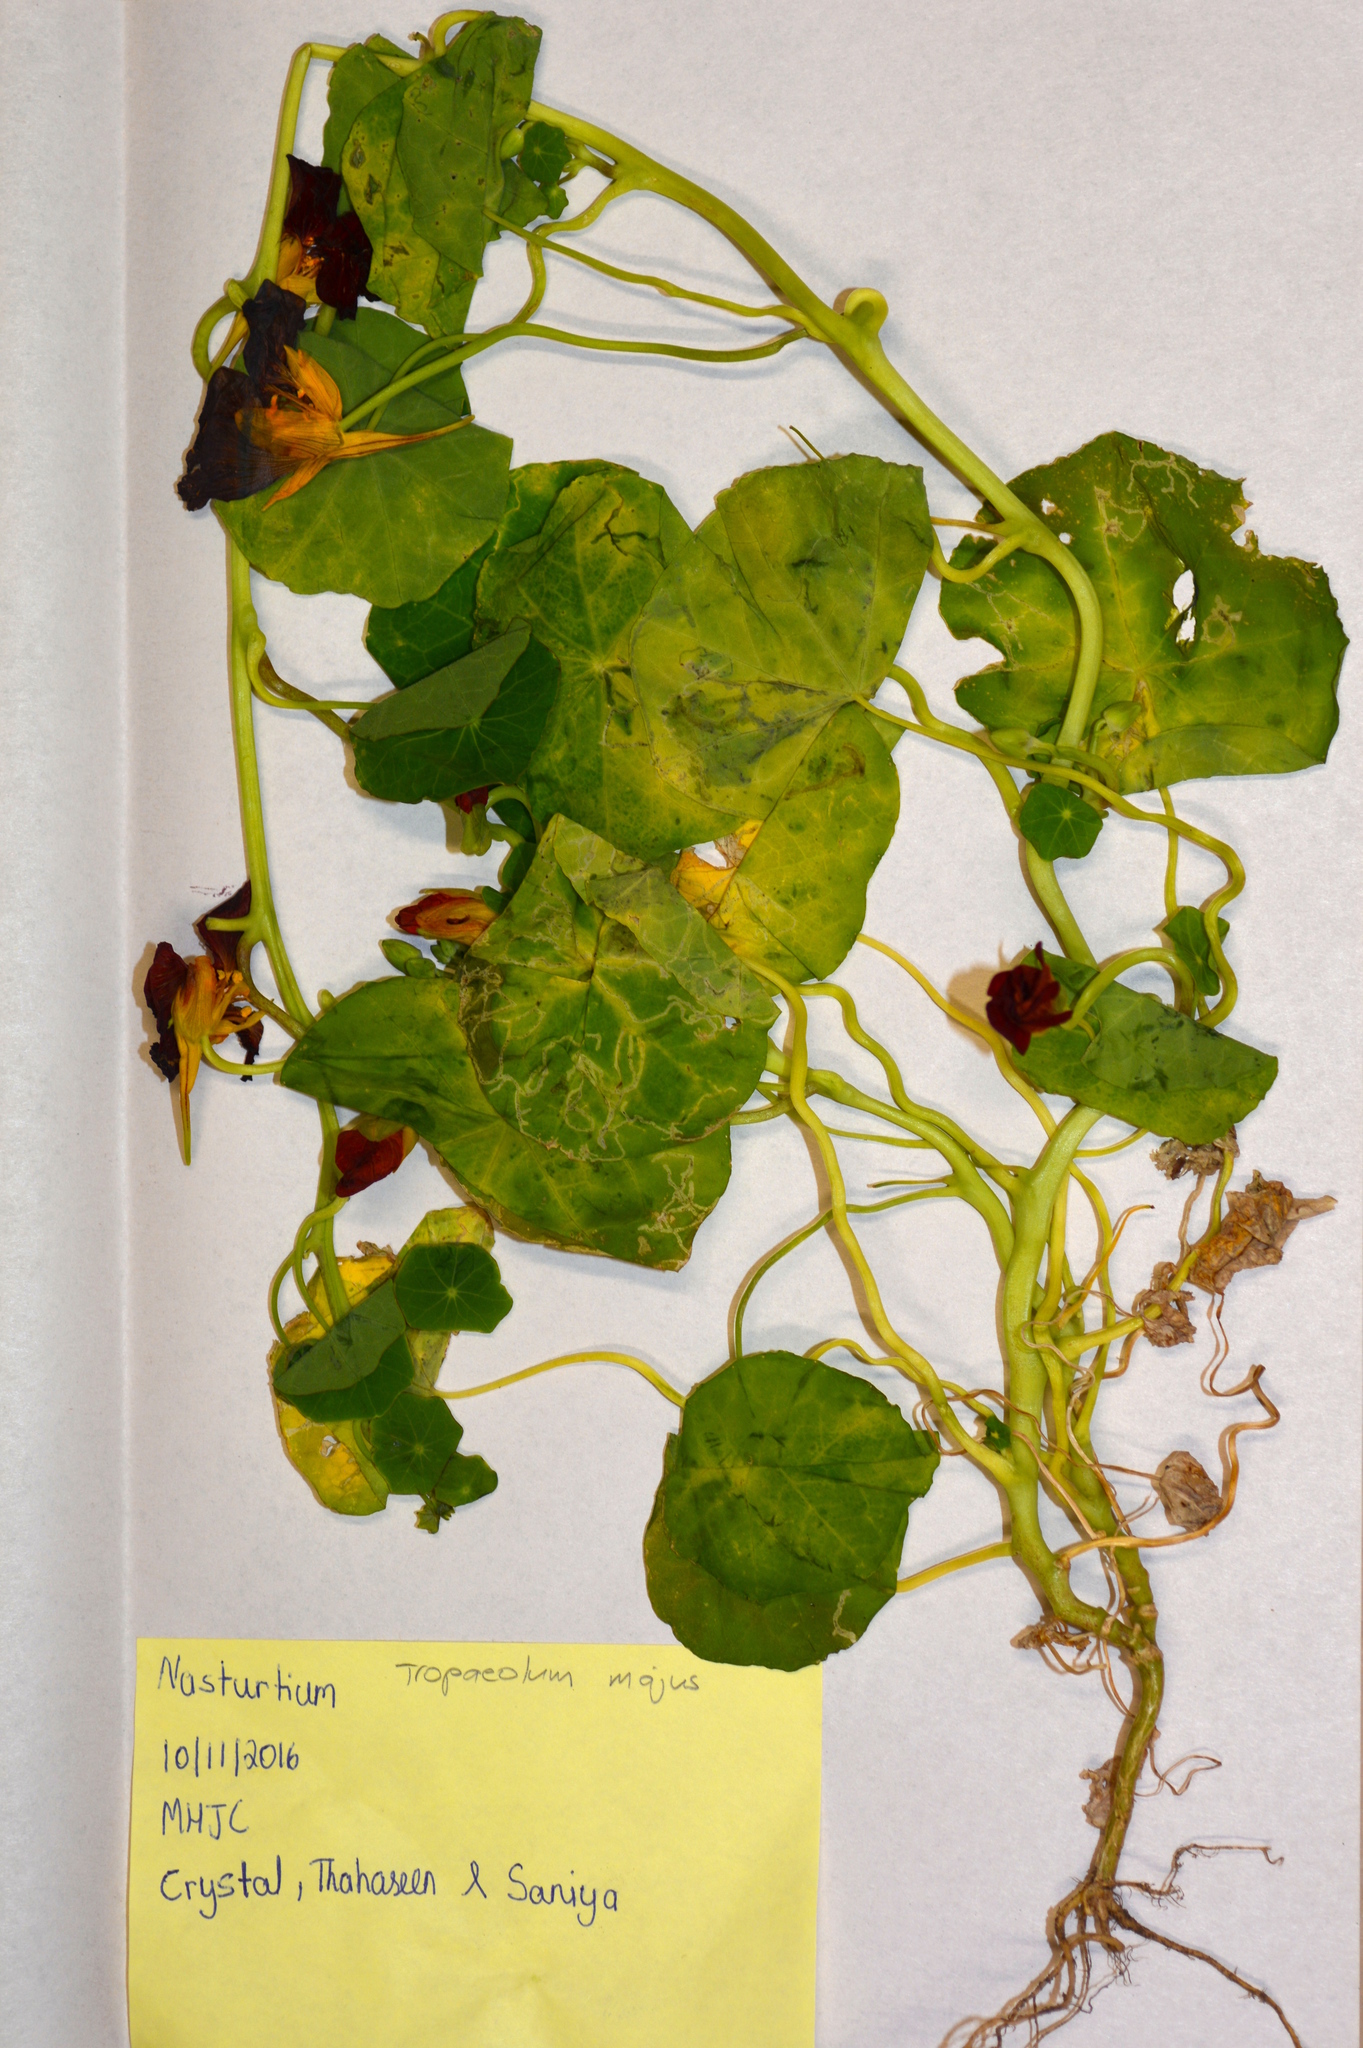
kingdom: Plantae
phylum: Tracheophyta
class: Magnoliopsida
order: Brassicales
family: Tropaeolaceae
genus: Tropaeolum
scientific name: Tropaeolum majus
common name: Nasturtium
